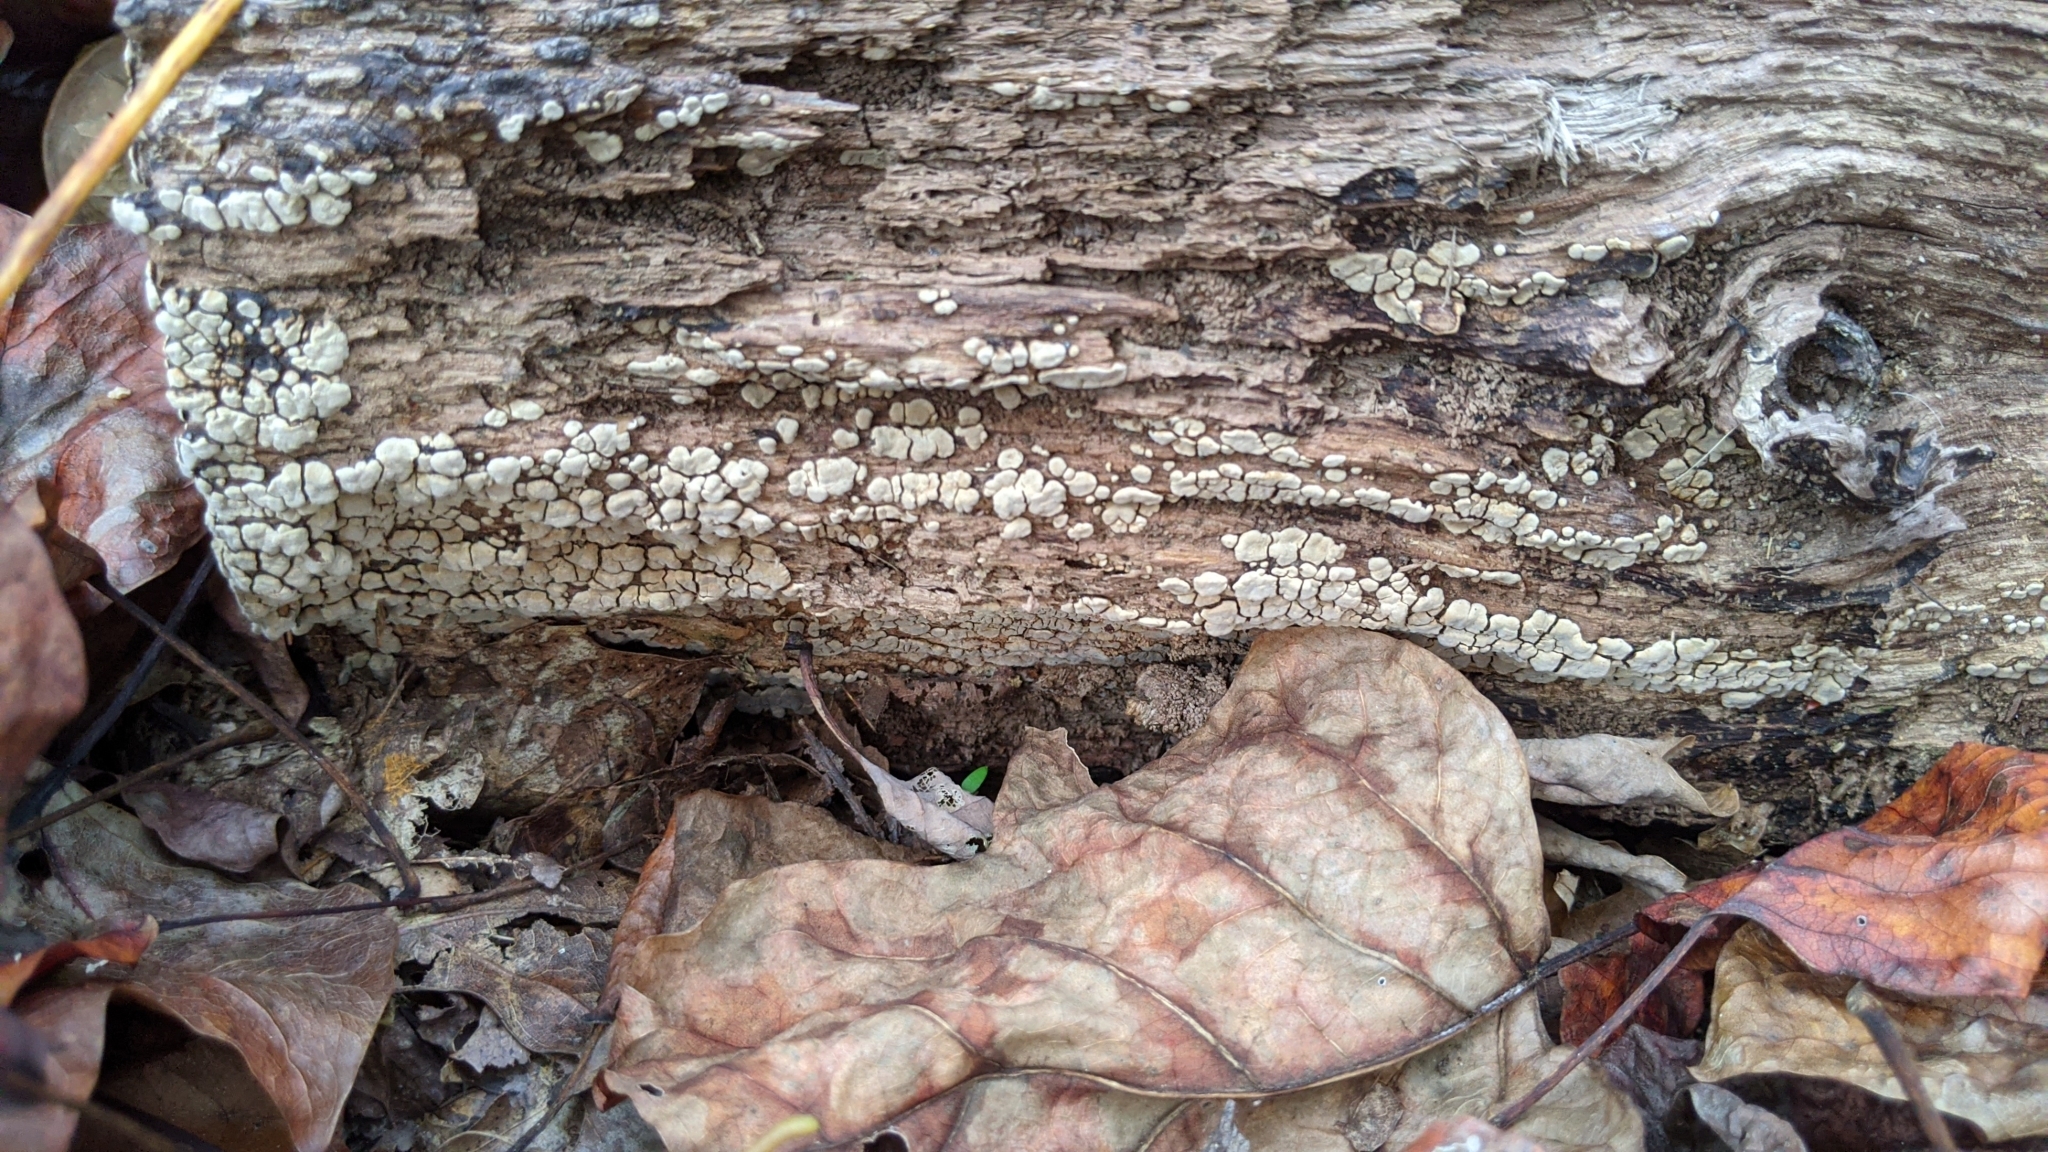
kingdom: Fungi
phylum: Basidiomycota
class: Agaricomycetes
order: Russulales
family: Stereaceae
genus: Xylobolus
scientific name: Xylobolus frustulatus
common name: Ceramic parchment
